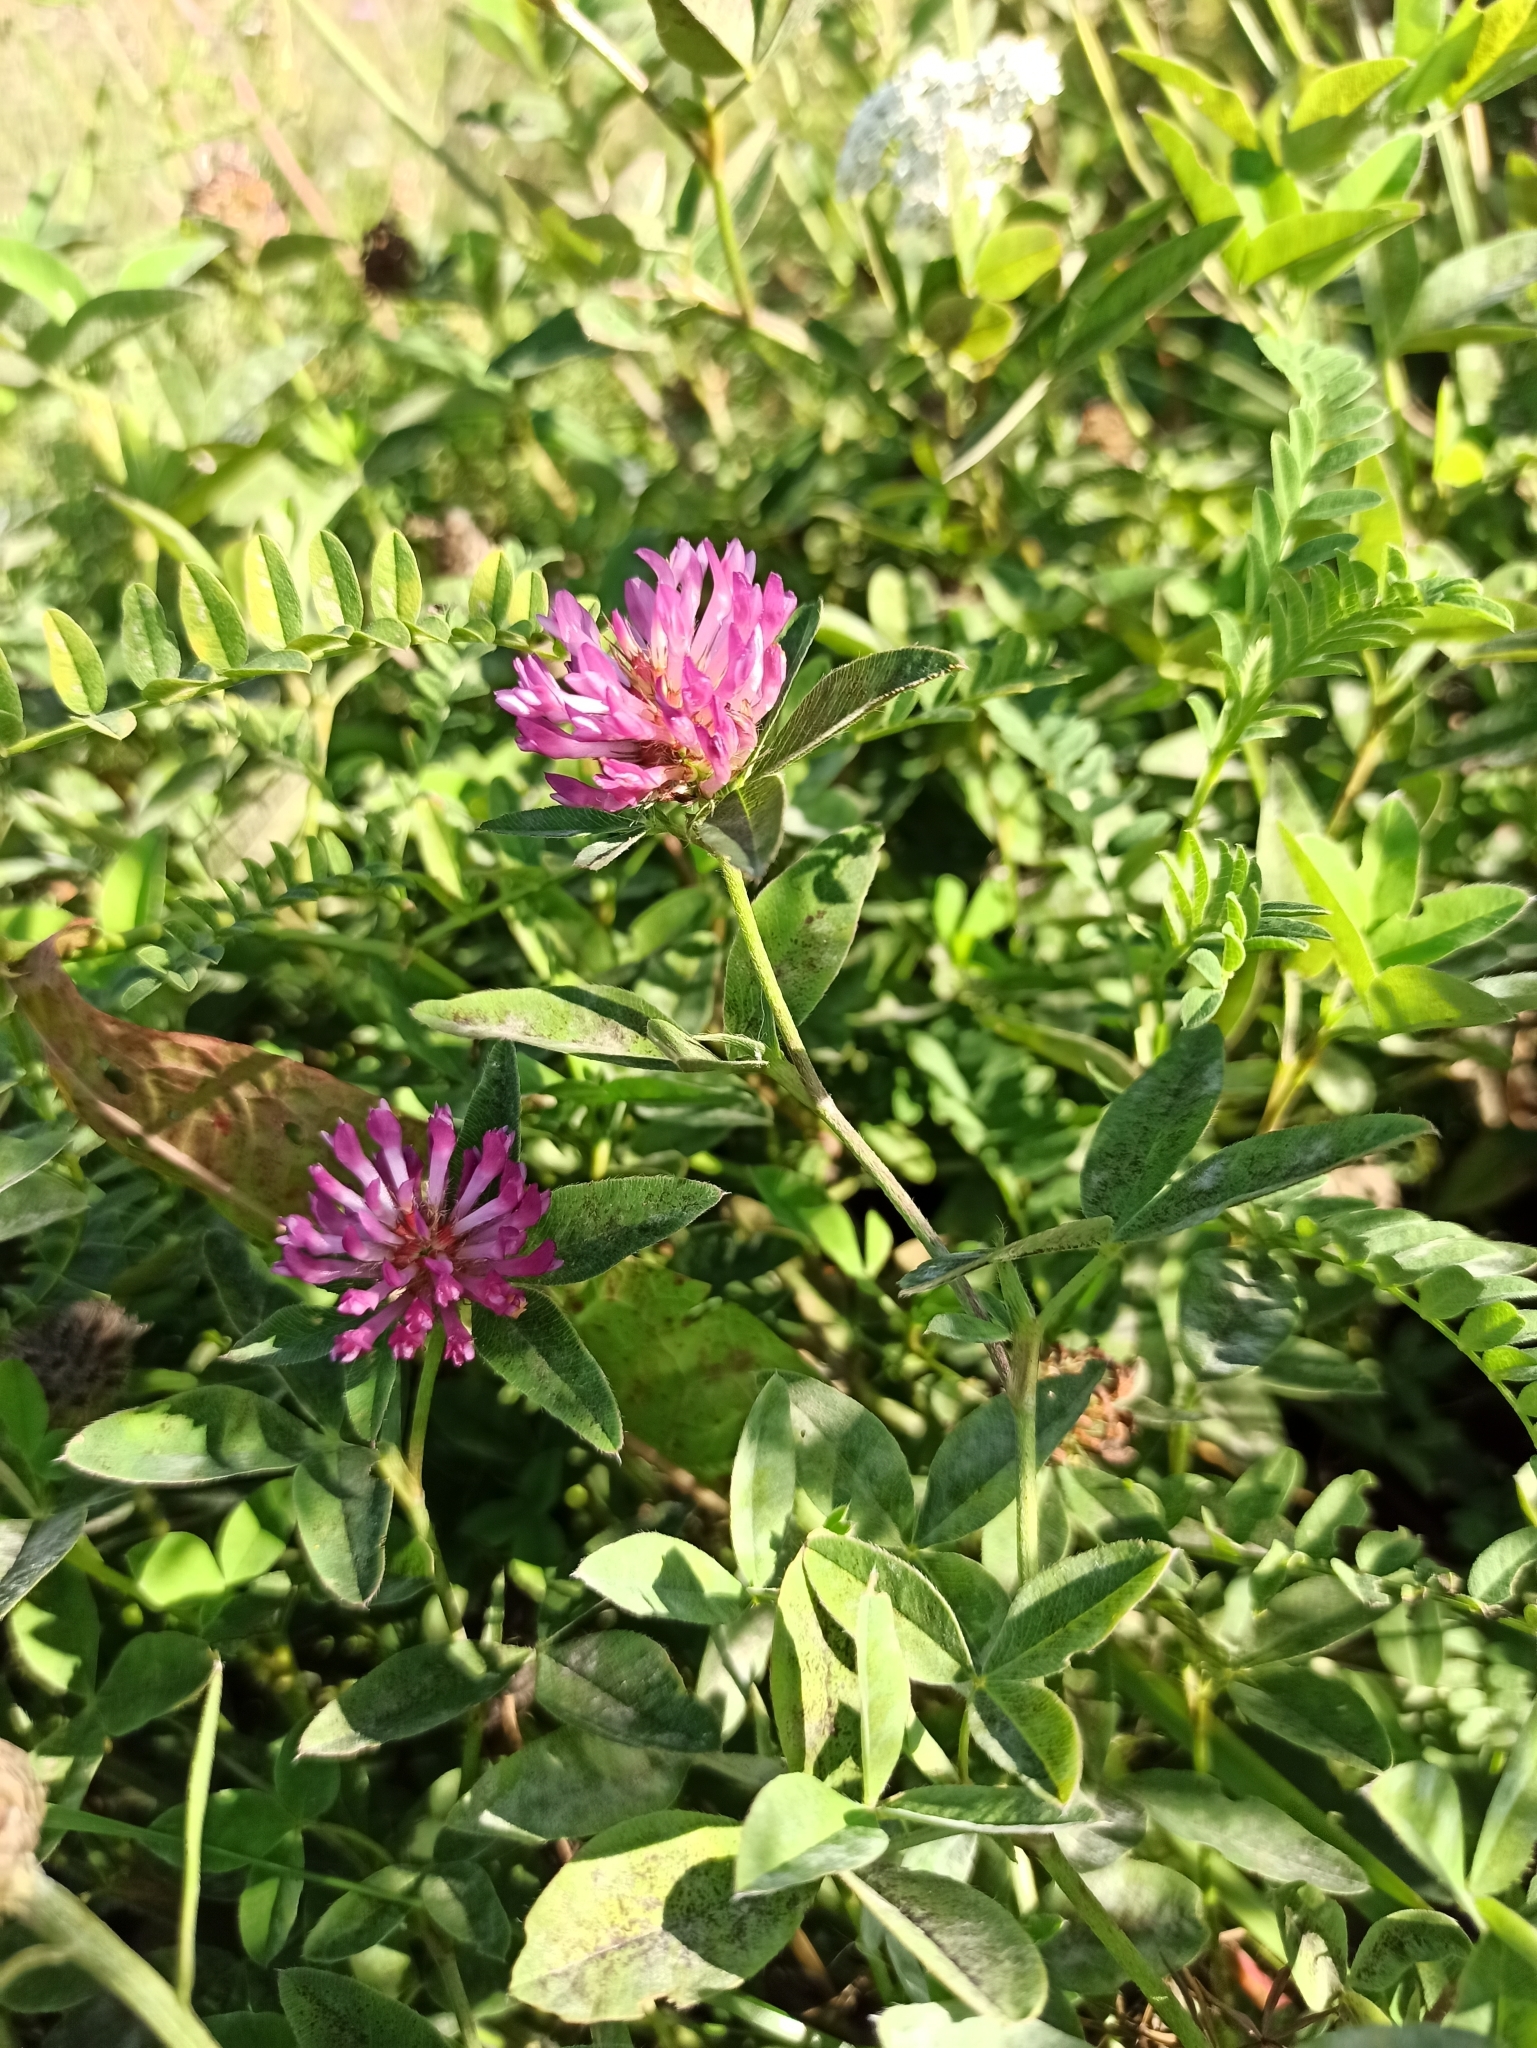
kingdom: Plantae
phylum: Tracheophyta
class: Magnoliopsida
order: Fabales
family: Fabaceae
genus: Trifolium
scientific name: Trifolium medium
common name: Zigzag clover
